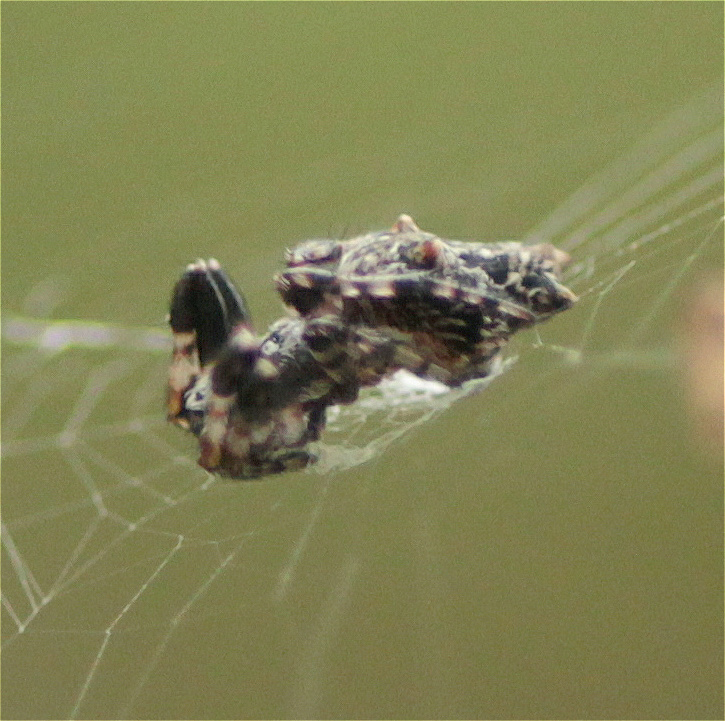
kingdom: Animalia
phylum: Arthropoda
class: Arachnida
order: Araneae
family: Araneidae
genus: Cyclosa
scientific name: Cyclosa bifurcata
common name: Orb weavers
